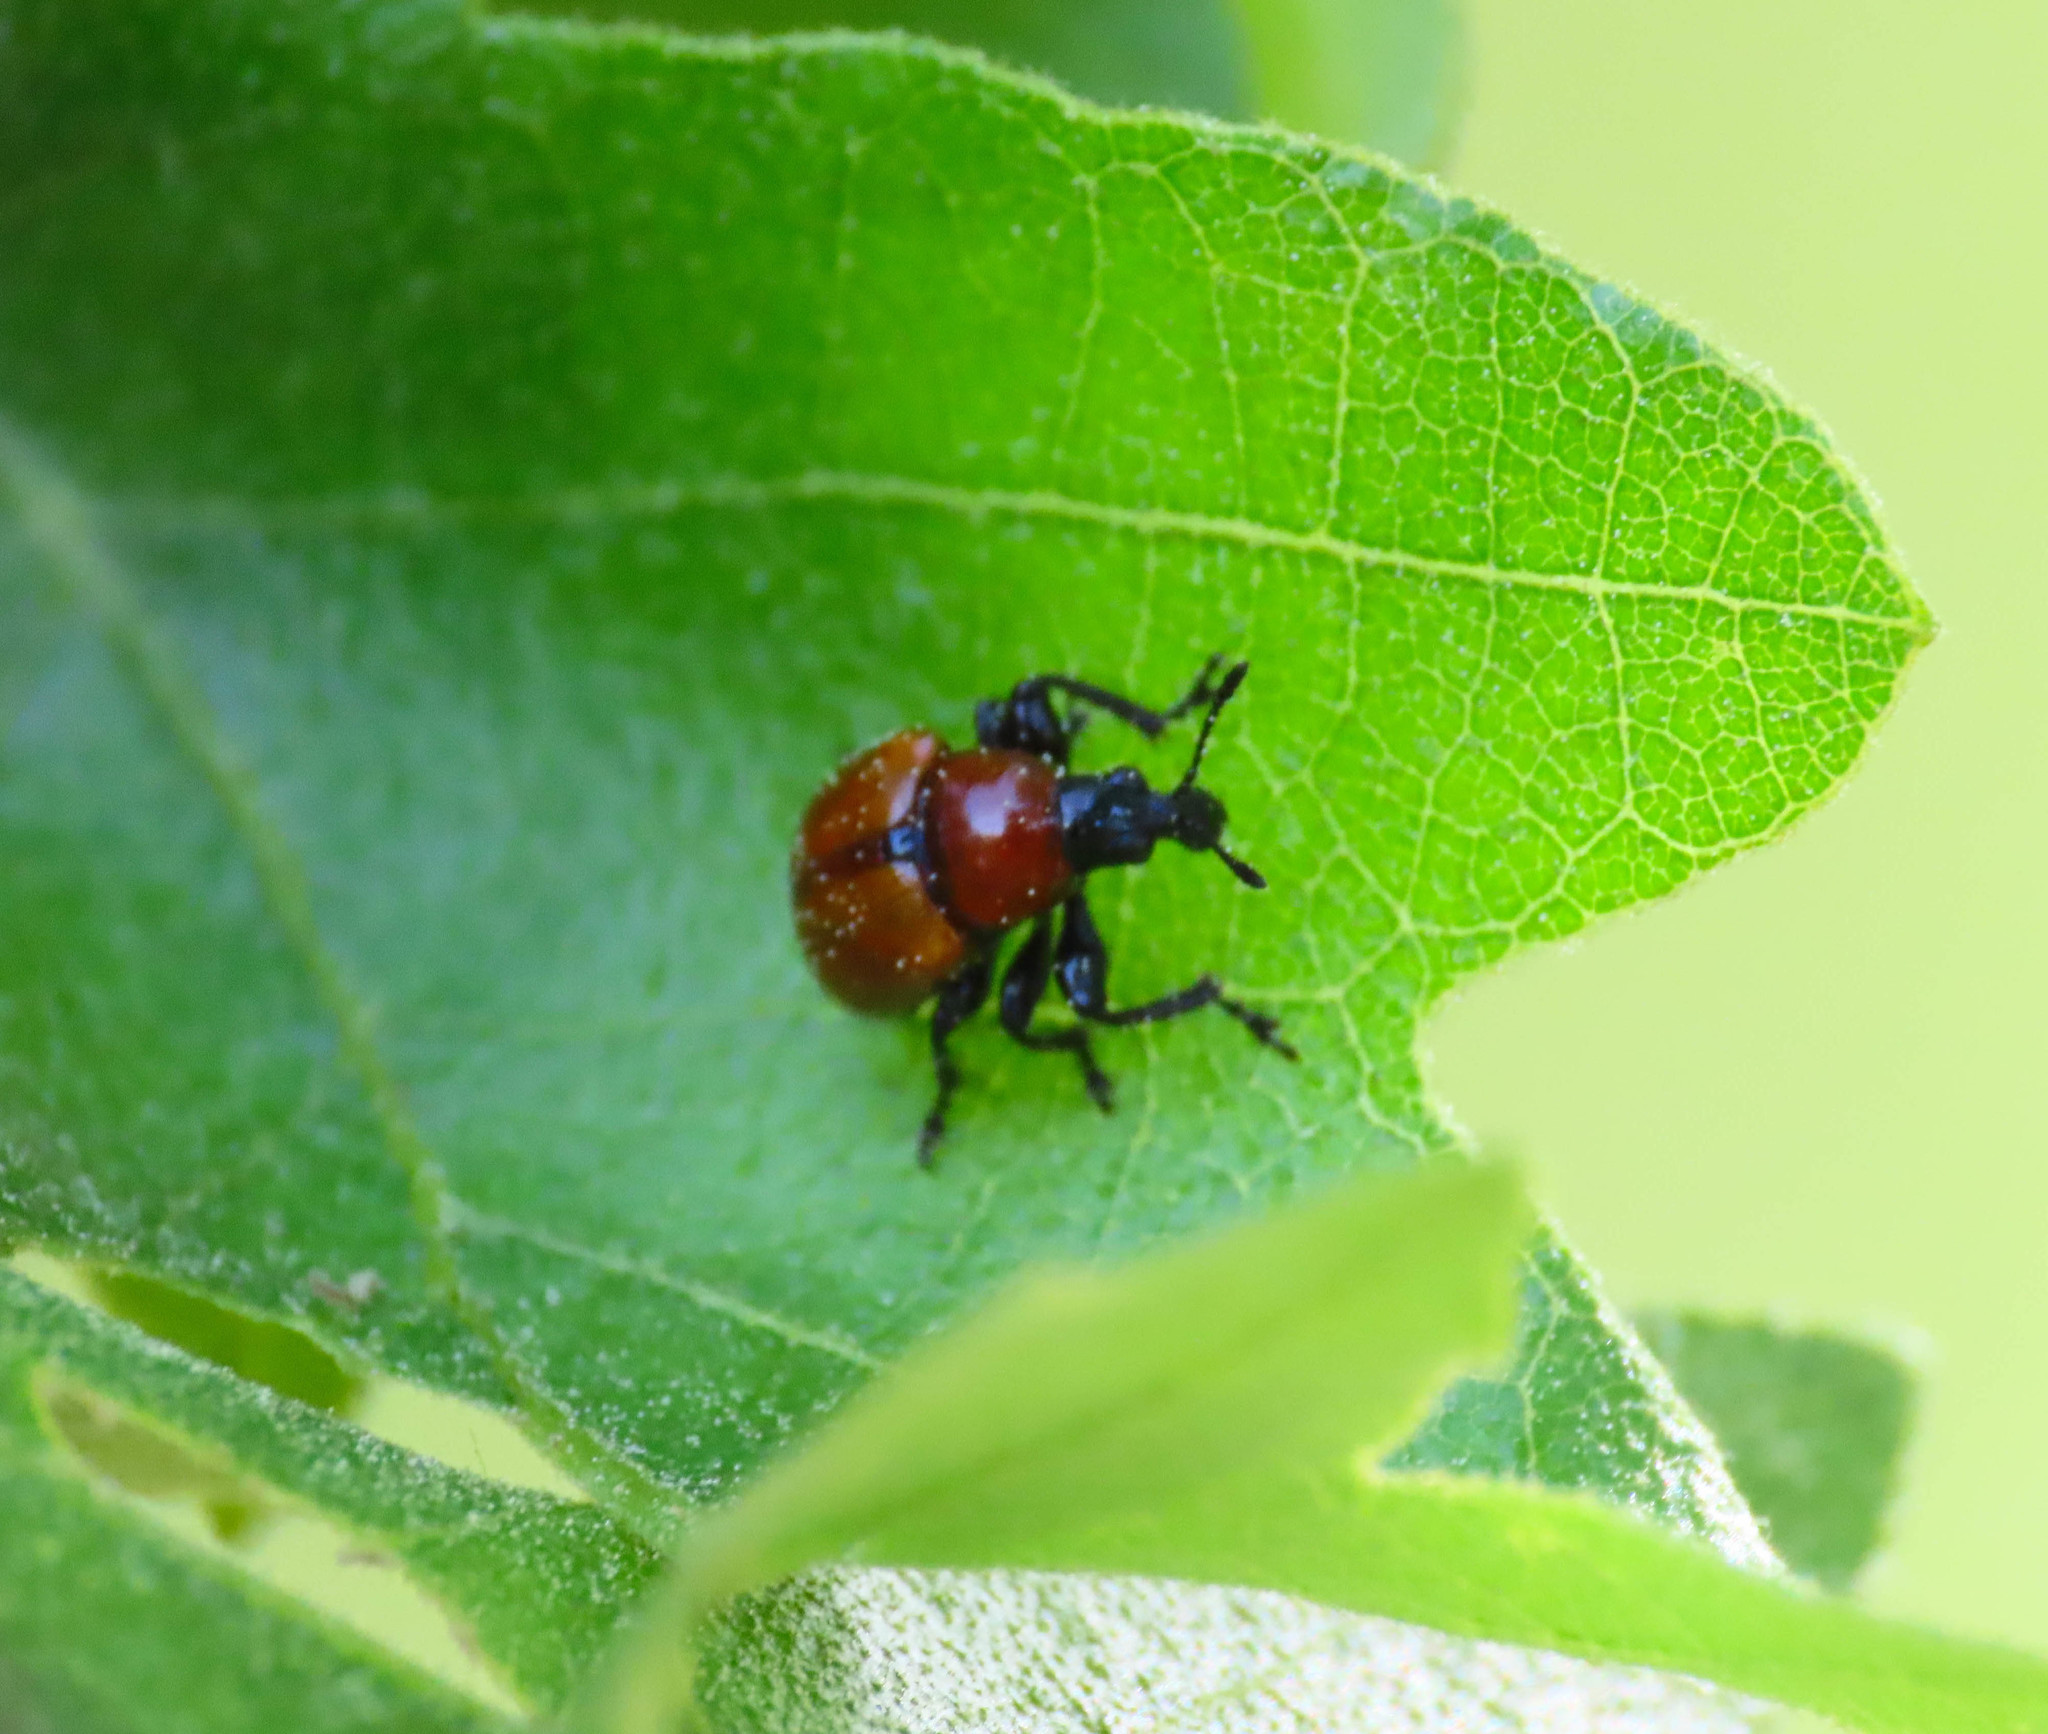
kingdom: Animalia
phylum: Arthropoda
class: Insecta
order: Coleoptera
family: Attelabidae
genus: Attelabus
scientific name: Attelabus nitens
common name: Oak leaf-roller
